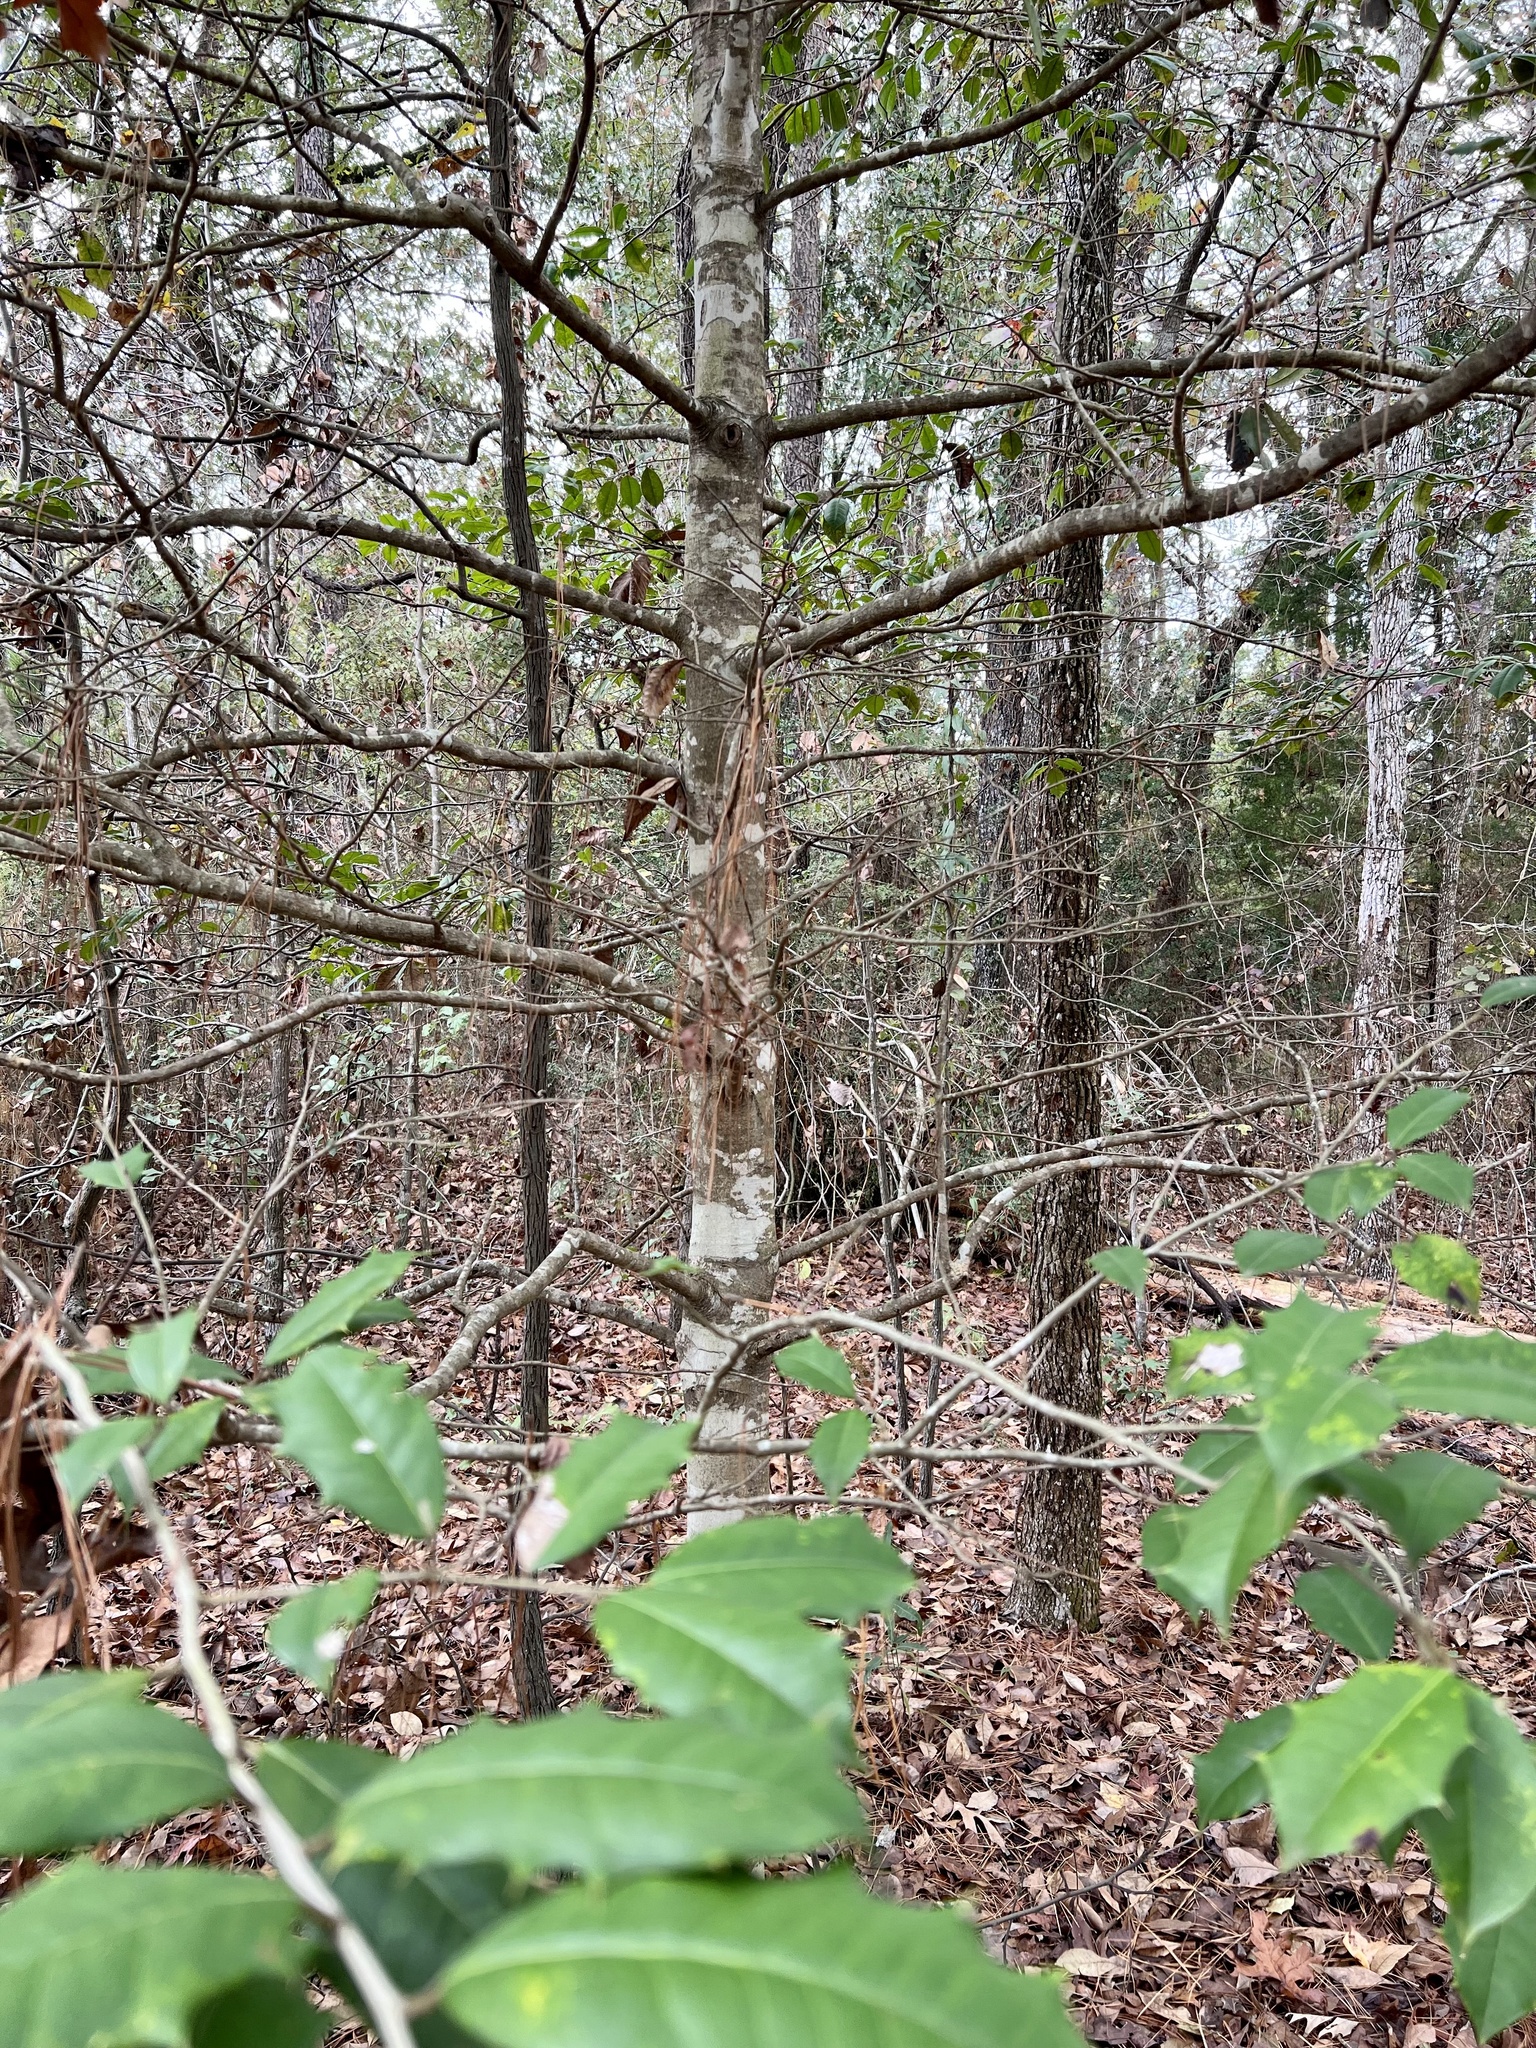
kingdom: Plantae
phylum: Tracheophyta
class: Magnoliopsida
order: Aquifoliales
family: Aquifoliaceae
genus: Ilex
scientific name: Ilex opaca
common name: American holly
